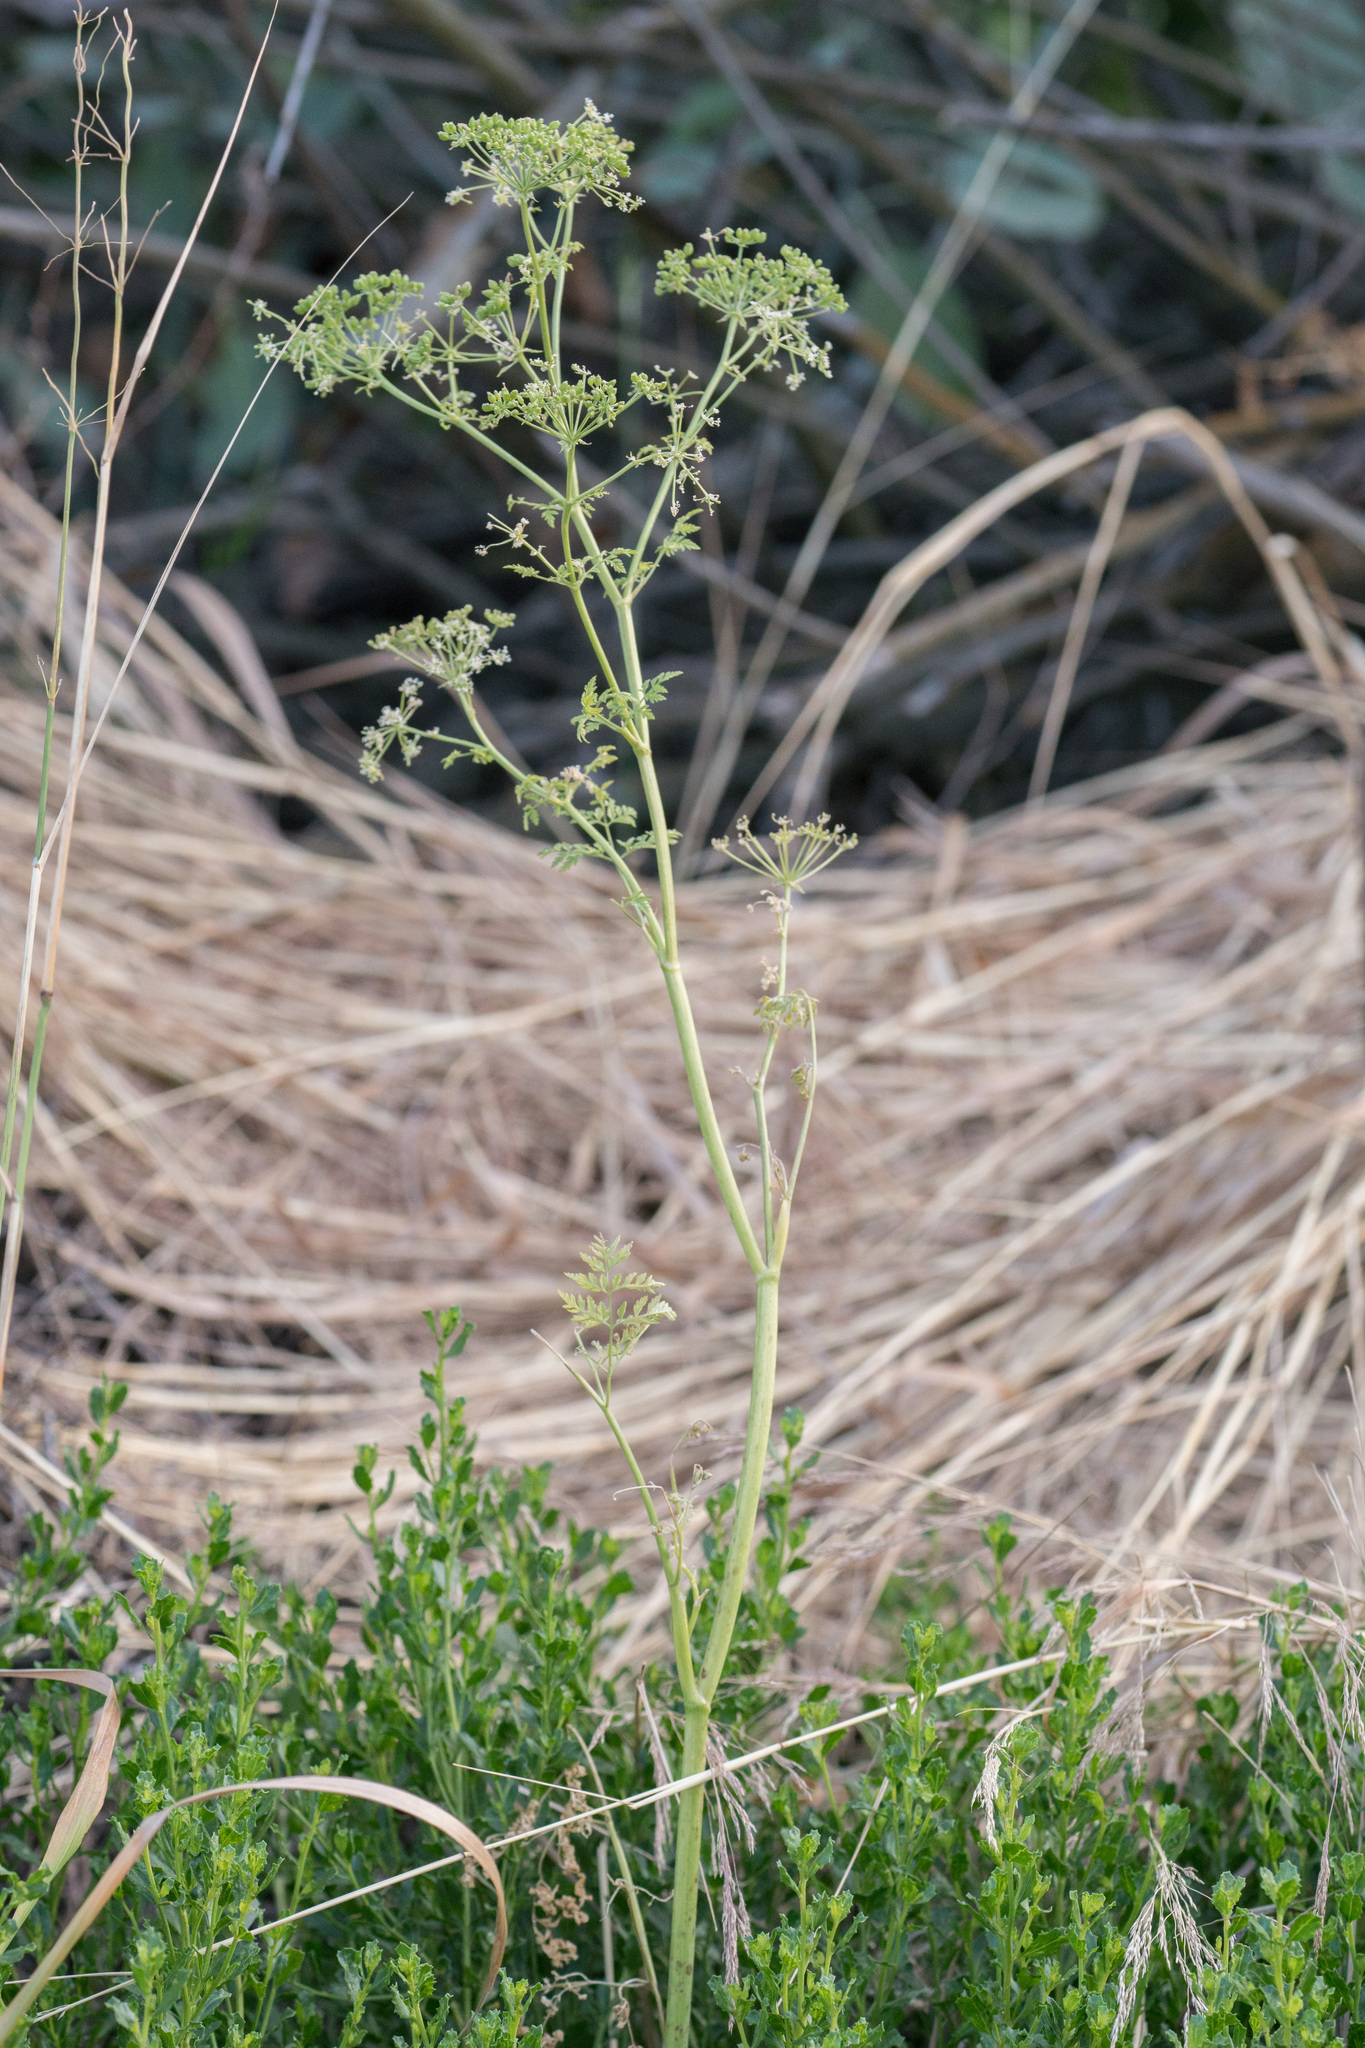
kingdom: Plantae
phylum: Tracheophyta
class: Magnoliopsida
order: Apiales
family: Apiaceae
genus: Conium
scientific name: Conium maculatum
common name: Hemlock
